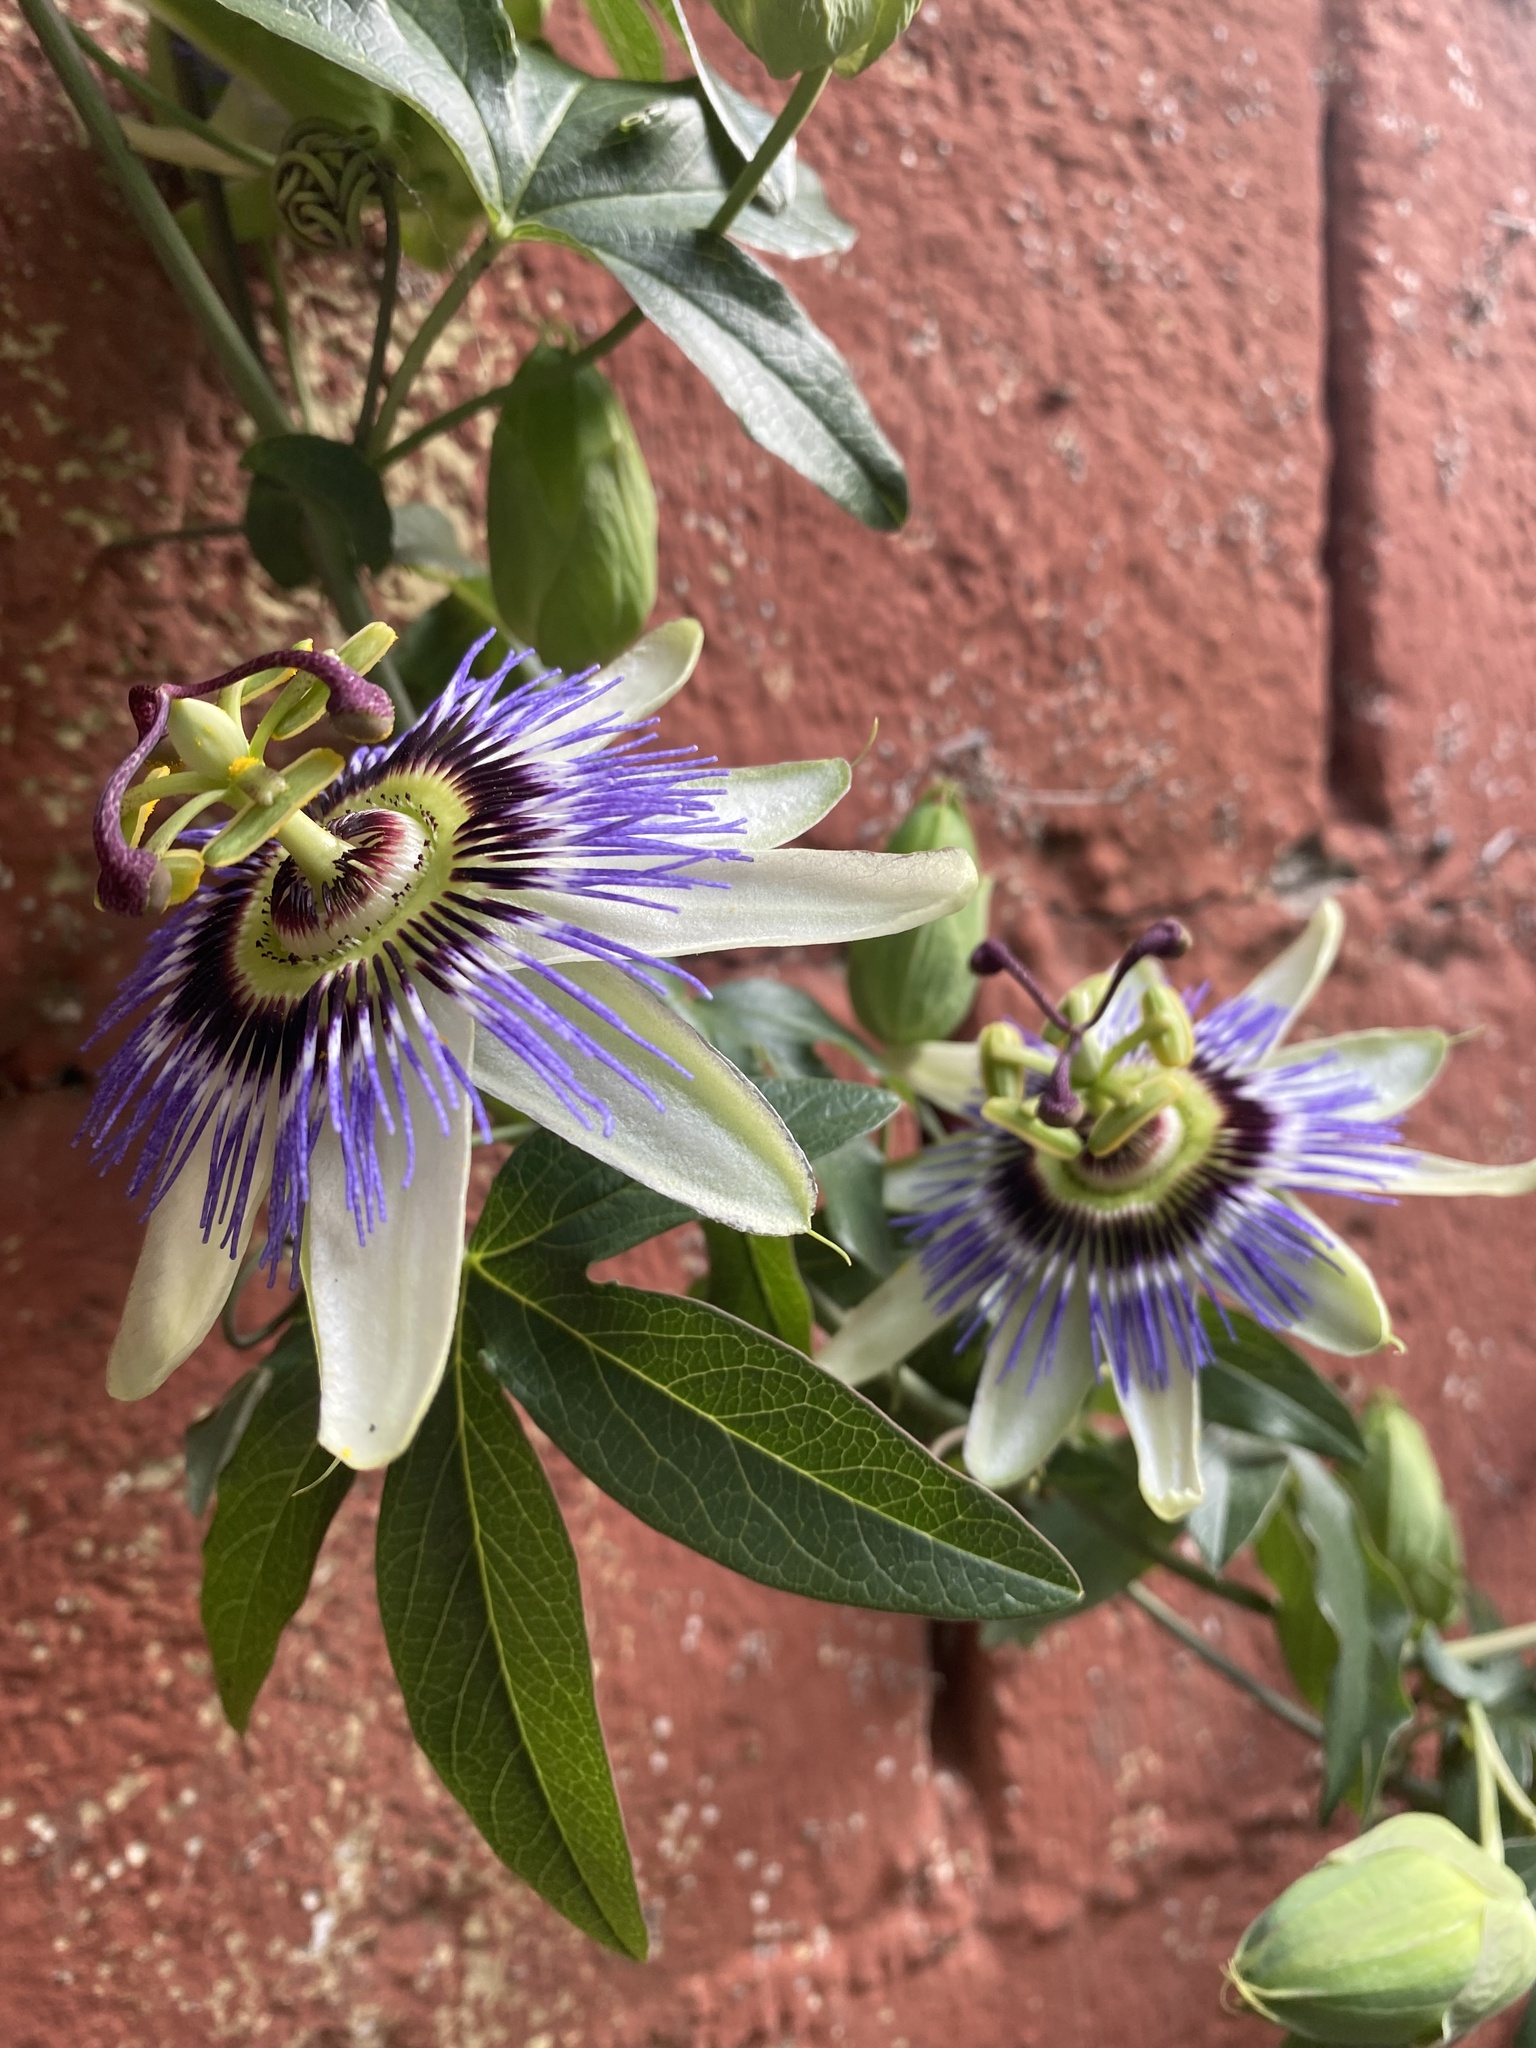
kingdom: Plantae
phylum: Tracheophyta
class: Magnoliopsida
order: Malpighiales
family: Passifloraceae
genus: Passiflora
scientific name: Passiflora caerulea
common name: Blue passionflower
